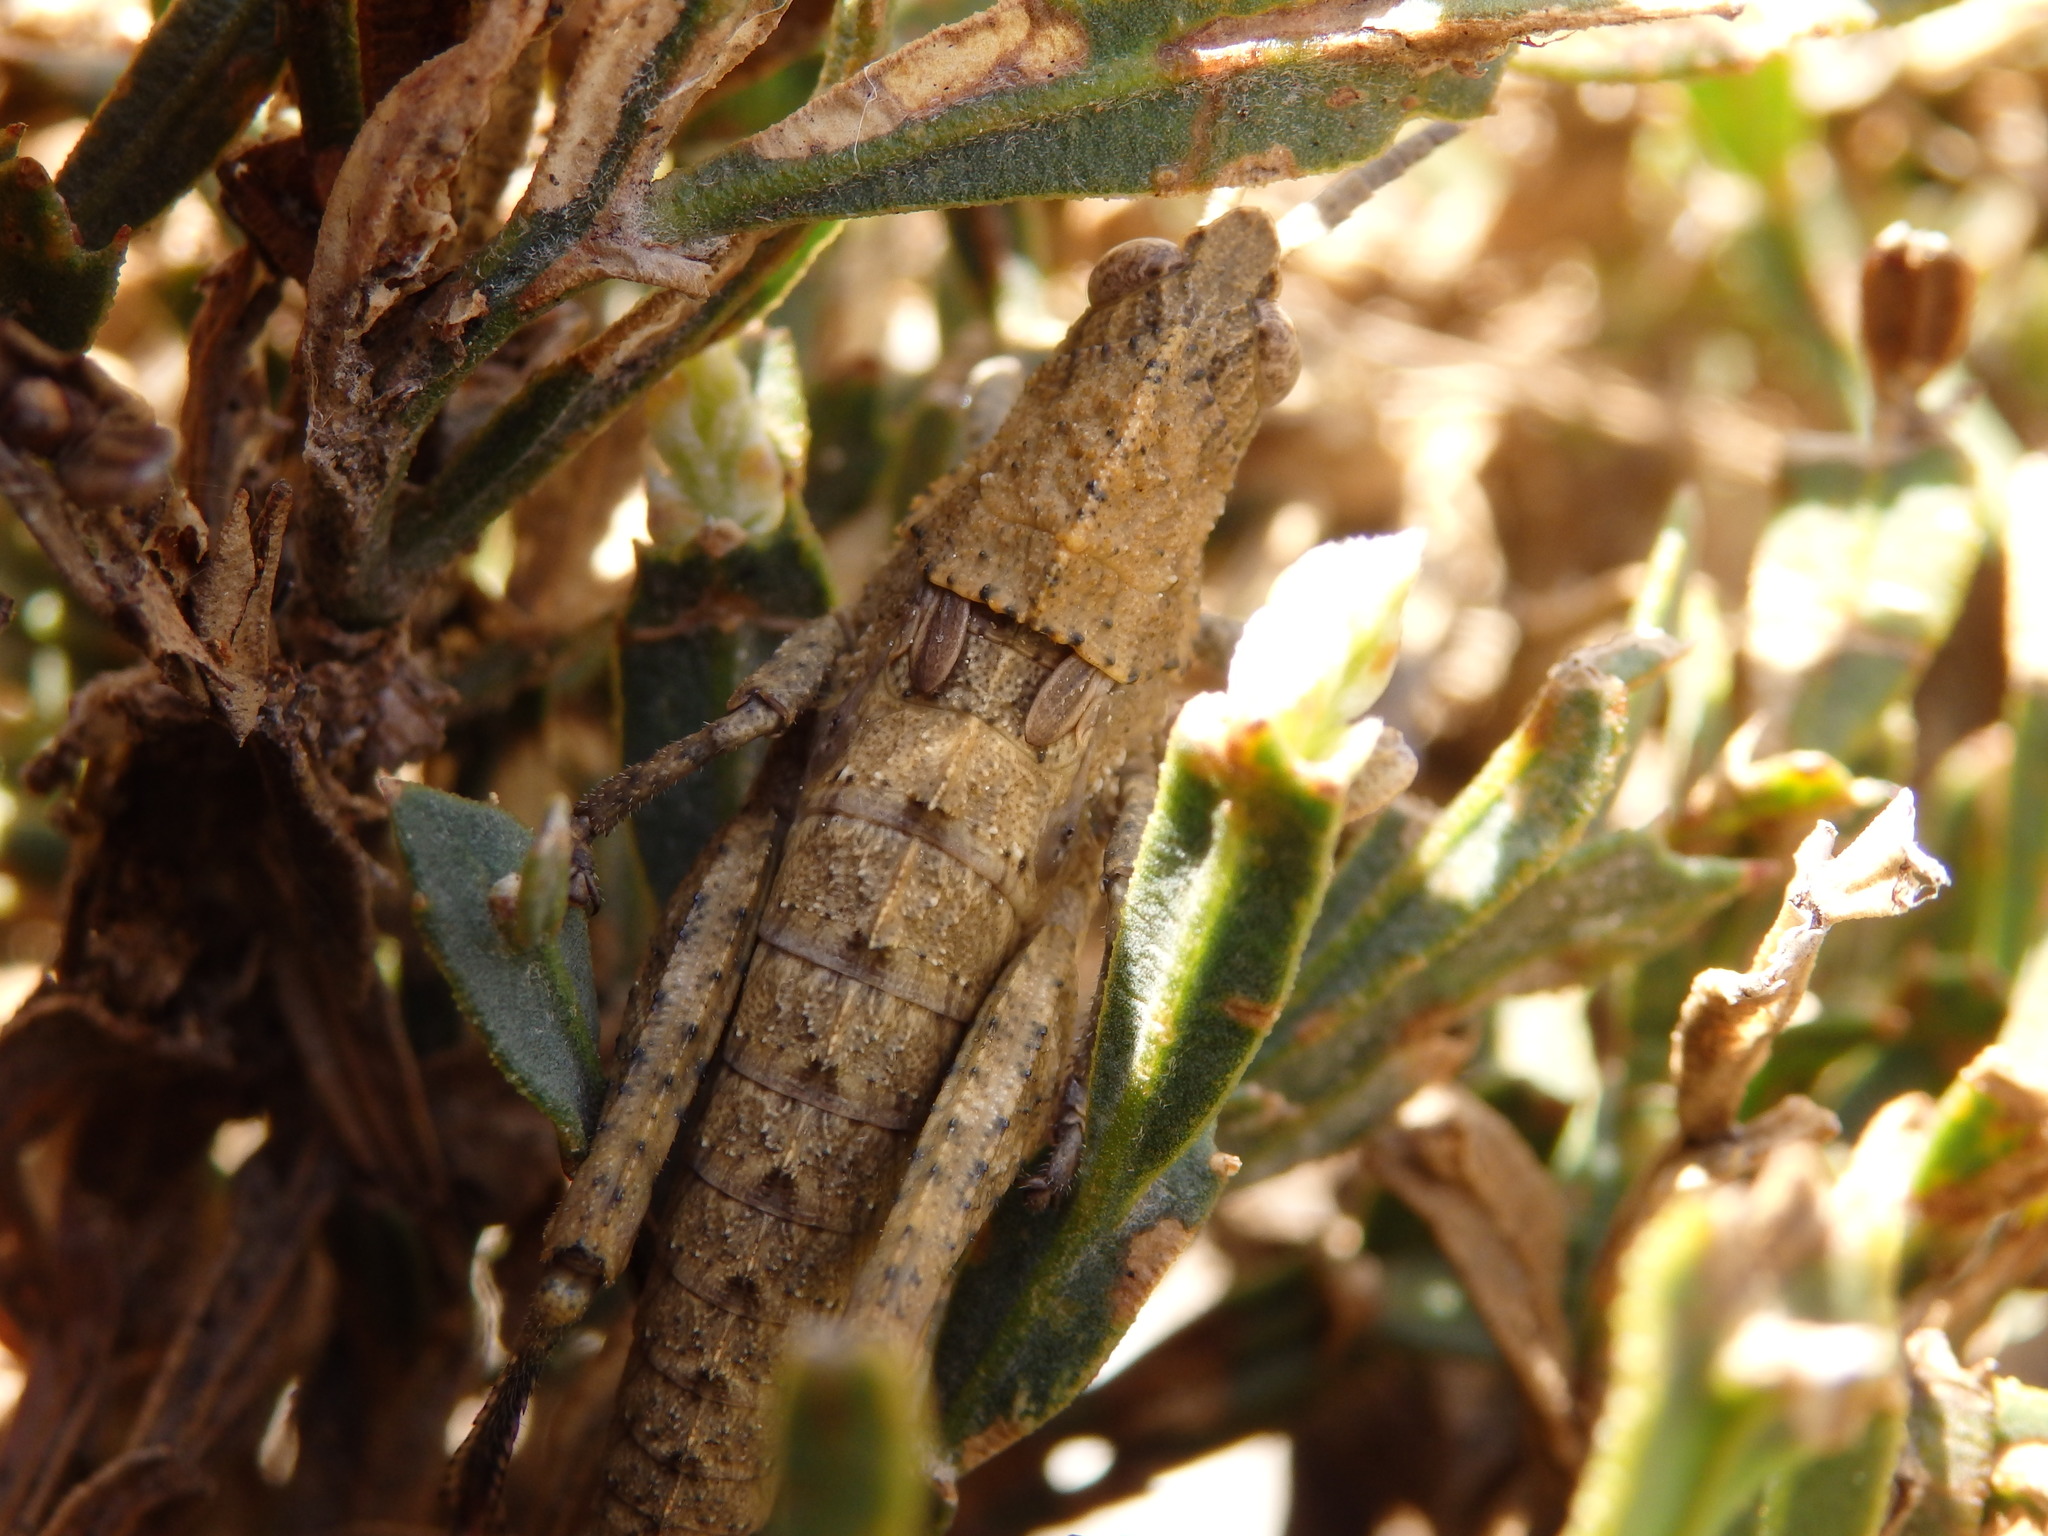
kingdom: Animalia
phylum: Arthropoda
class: Insecta
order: Orthoptera
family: Pamphagidae
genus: Eumigus
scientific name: Eumigus ayresi
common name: Ayres' stone grasshopper
